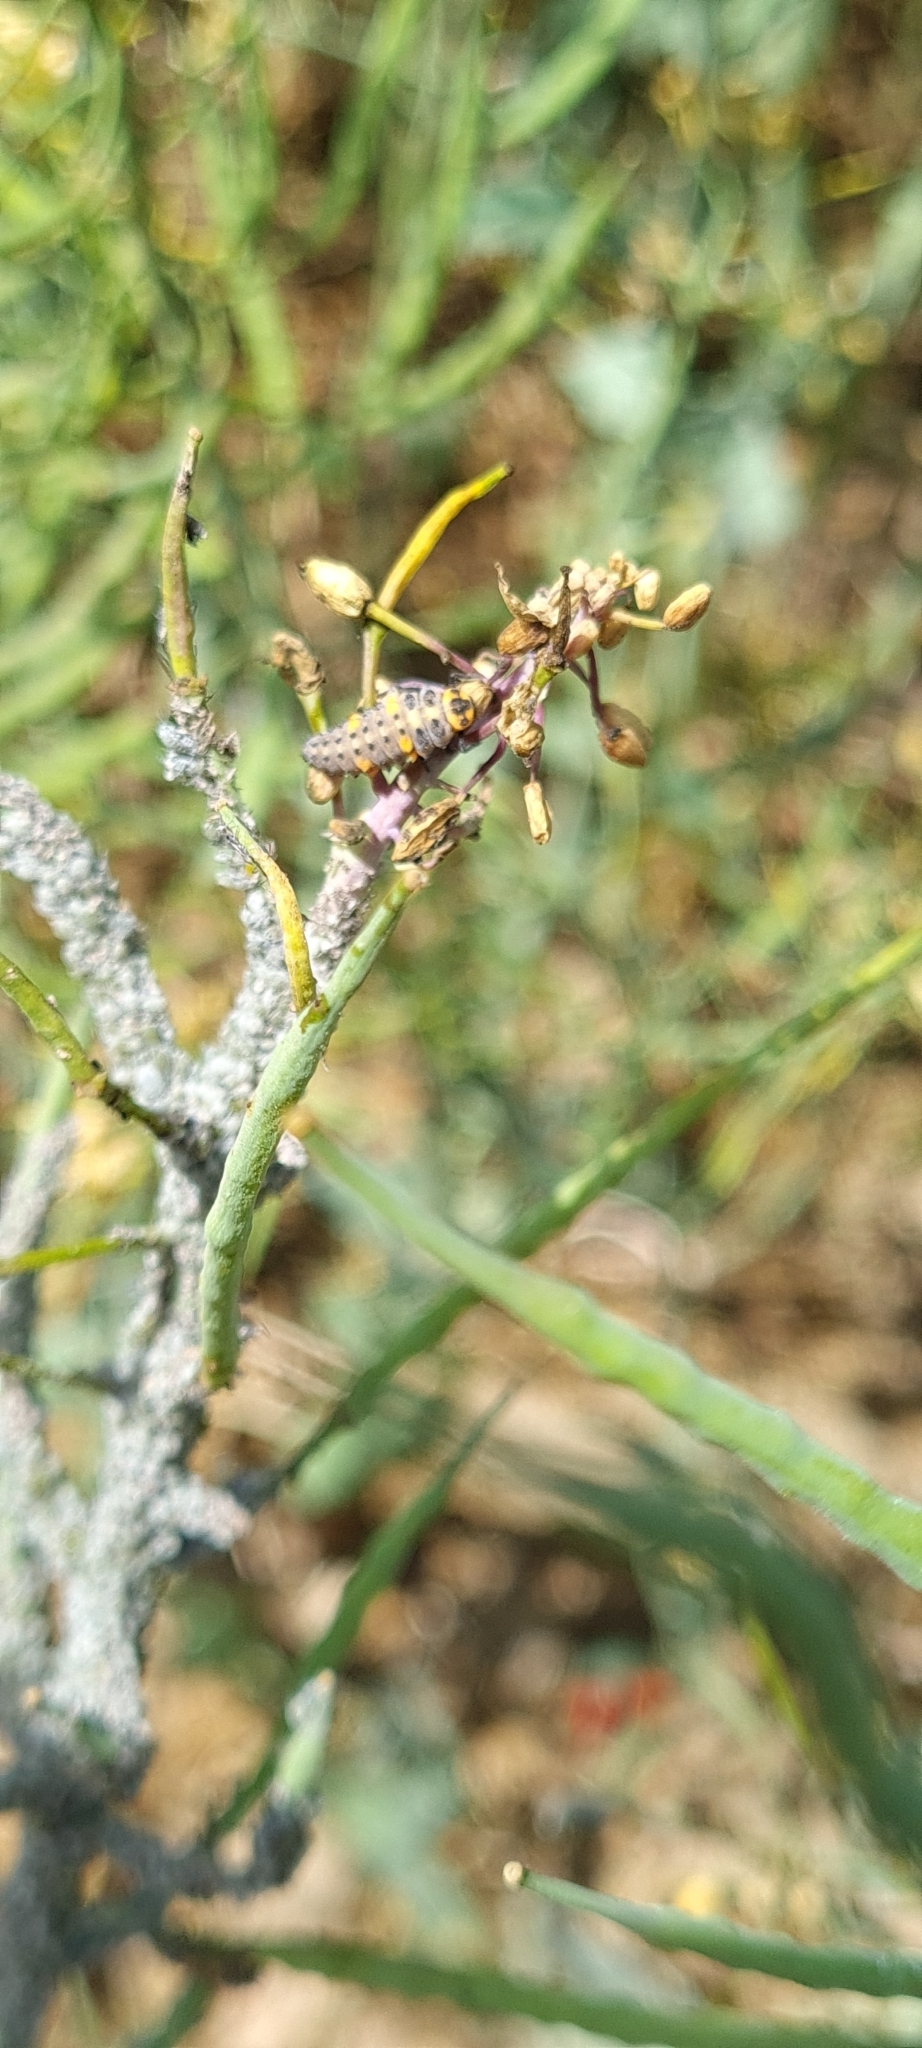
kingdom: Animalia
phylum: Arthropoda
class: Insecta
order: Coleoptera
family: Coccinellidae
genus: Coccinella
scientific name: Coccinella septempunctata
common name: Sevenspotted lady beetle
